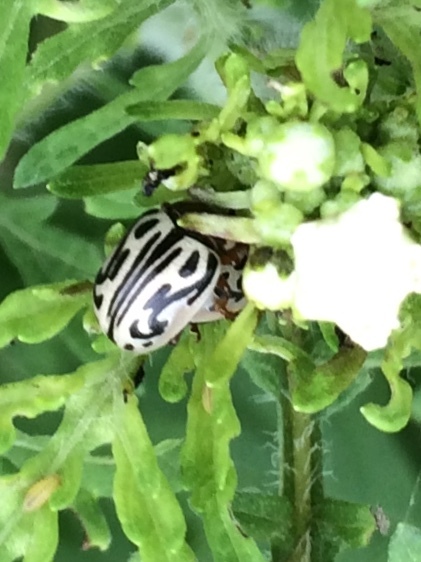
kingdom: Animalia
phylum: Arthropoda
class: Insecta
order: Coleoptera
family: Chrysomelidae
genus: Calligrapha
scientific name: Calligrapha
